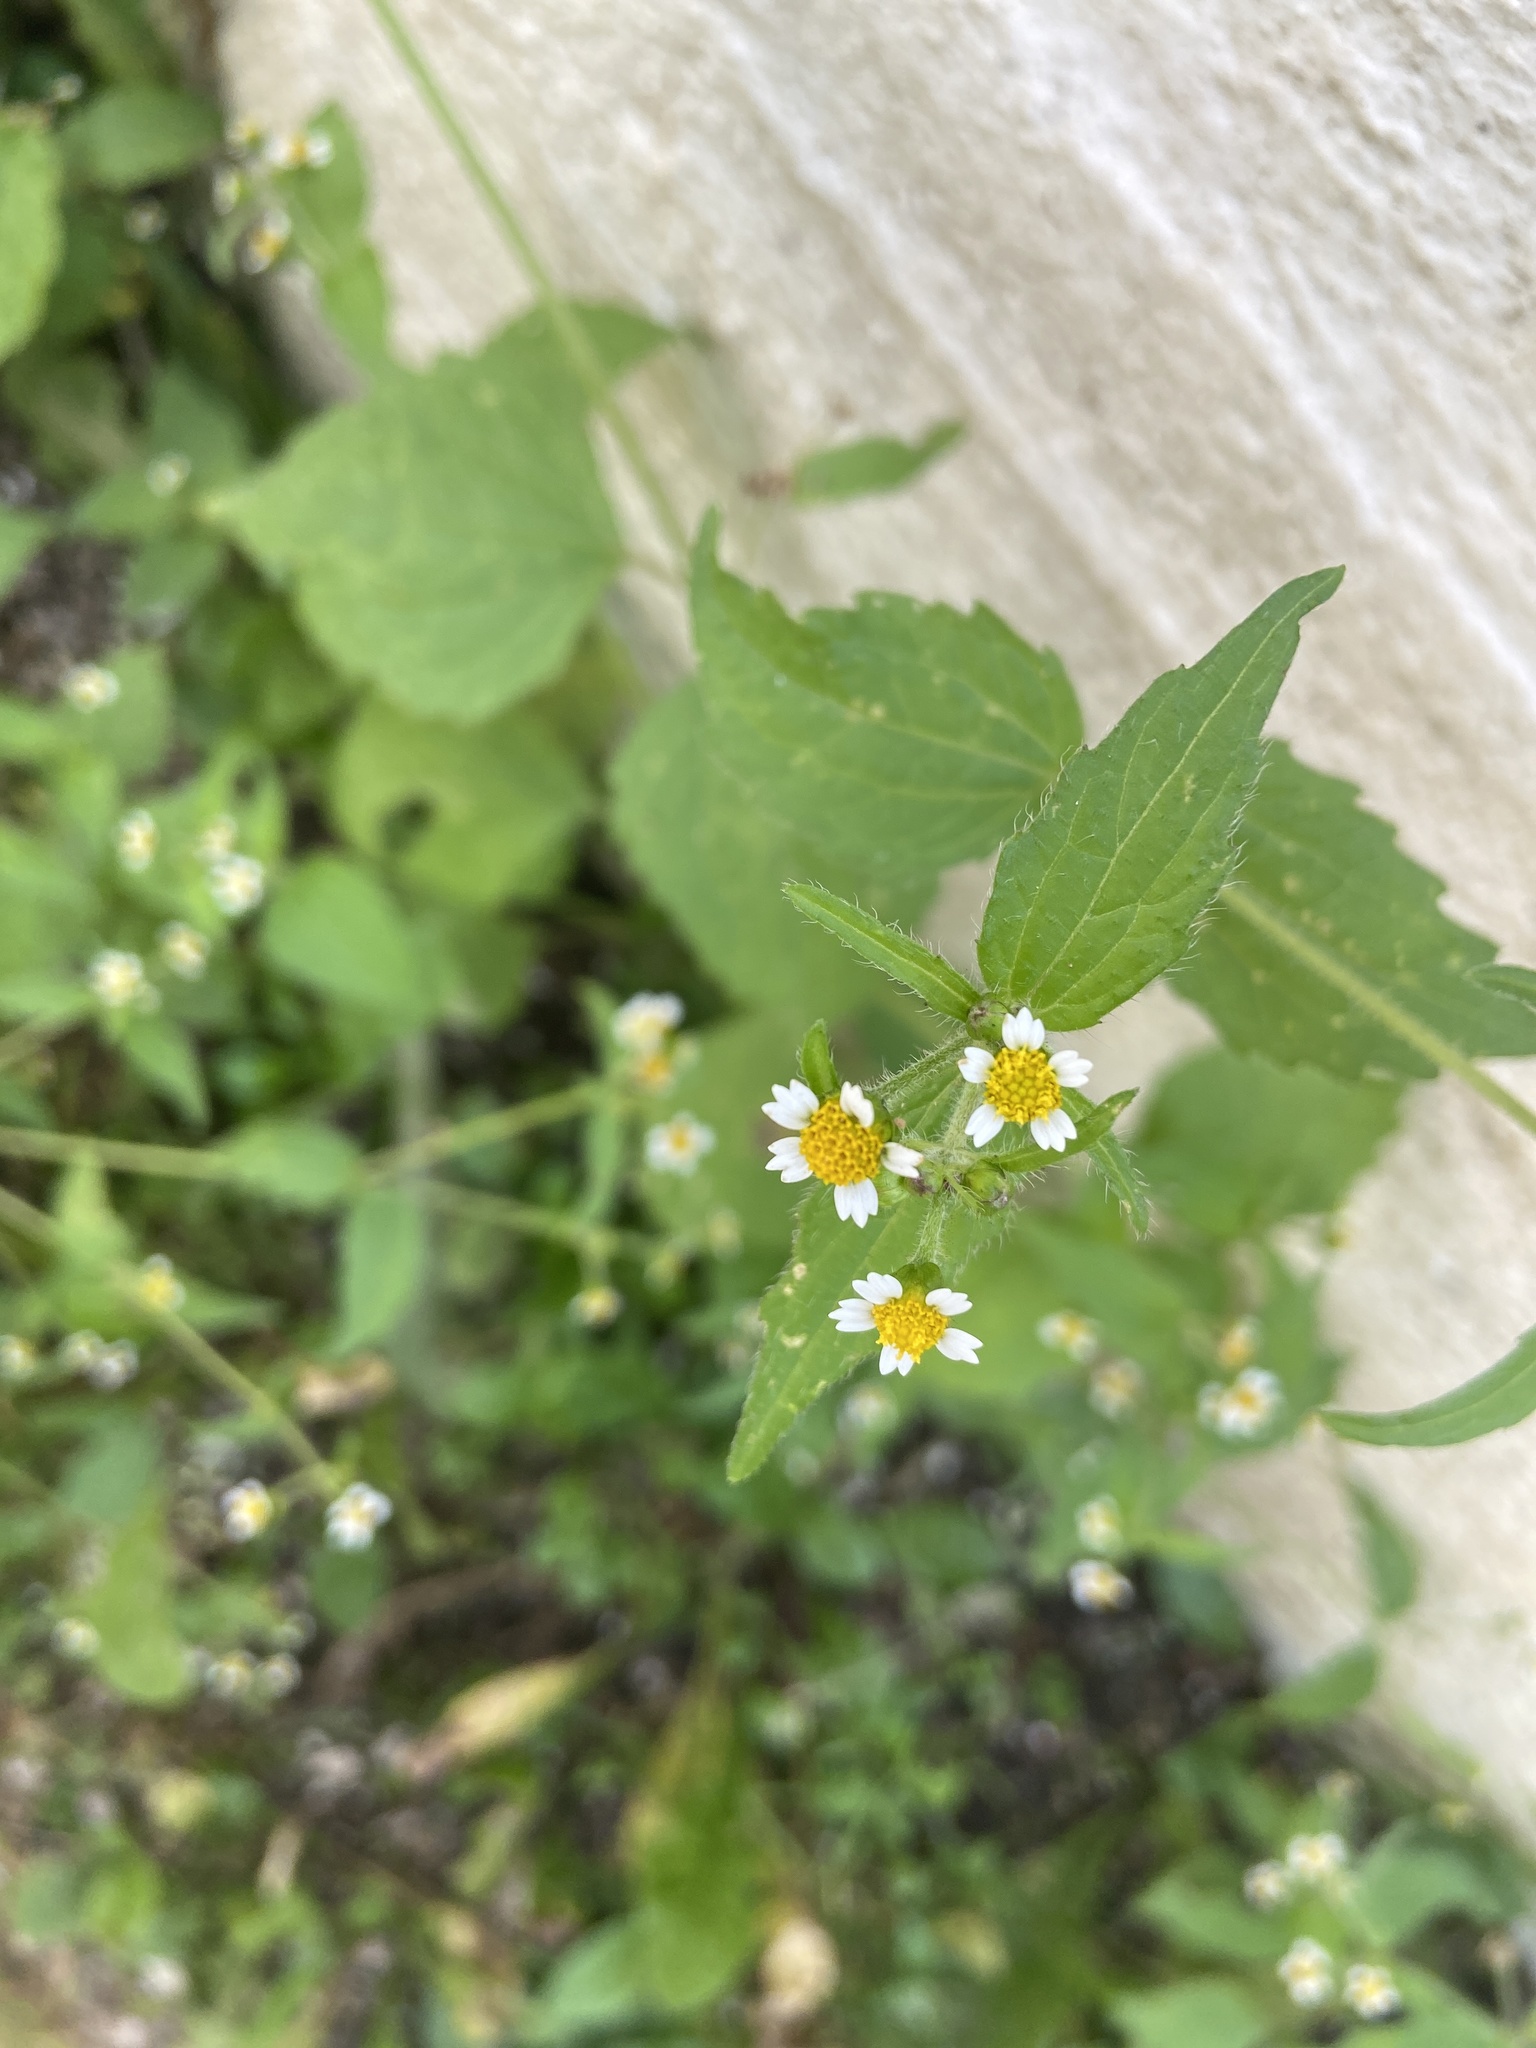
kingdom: Plantae
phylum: Tracheophyta
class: Magnoliopsida
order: Asterales
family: Asteraceae
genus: Galinsoga
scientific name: Galinsoga quadriradiata
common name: Shaggy soldier
